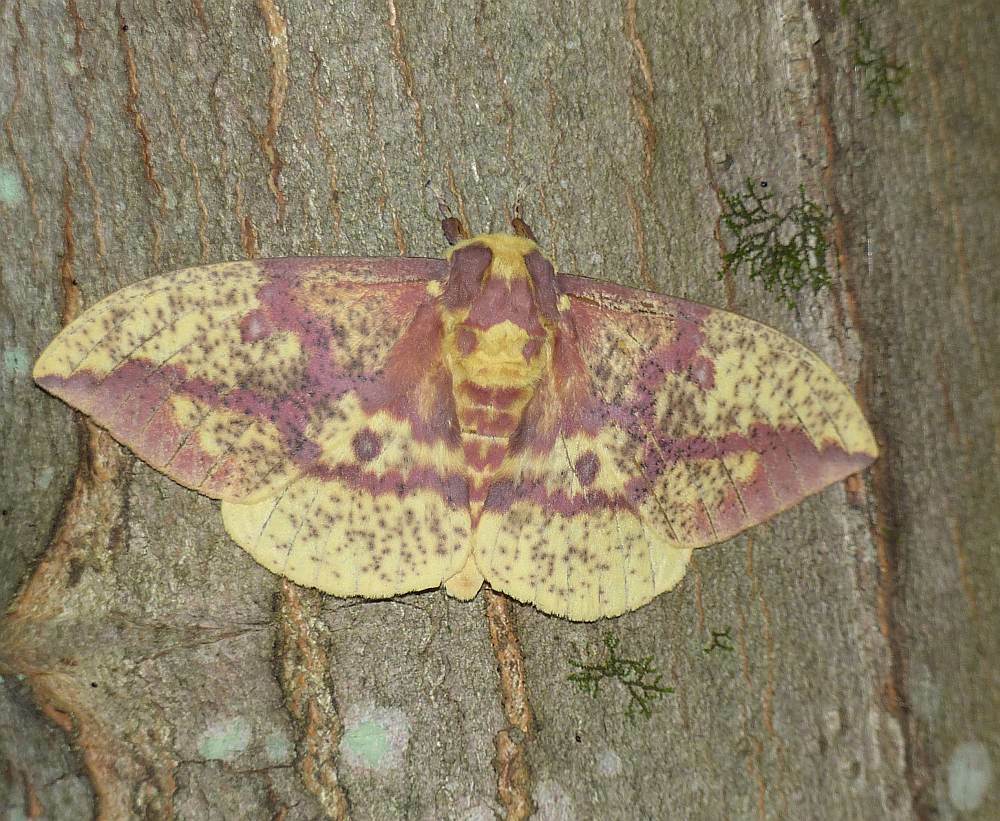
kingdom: Animalia
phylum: Arthropoda
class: Insecta
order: Lepidoptera
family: Saturniidae
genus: Eacles
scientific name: Eacles
